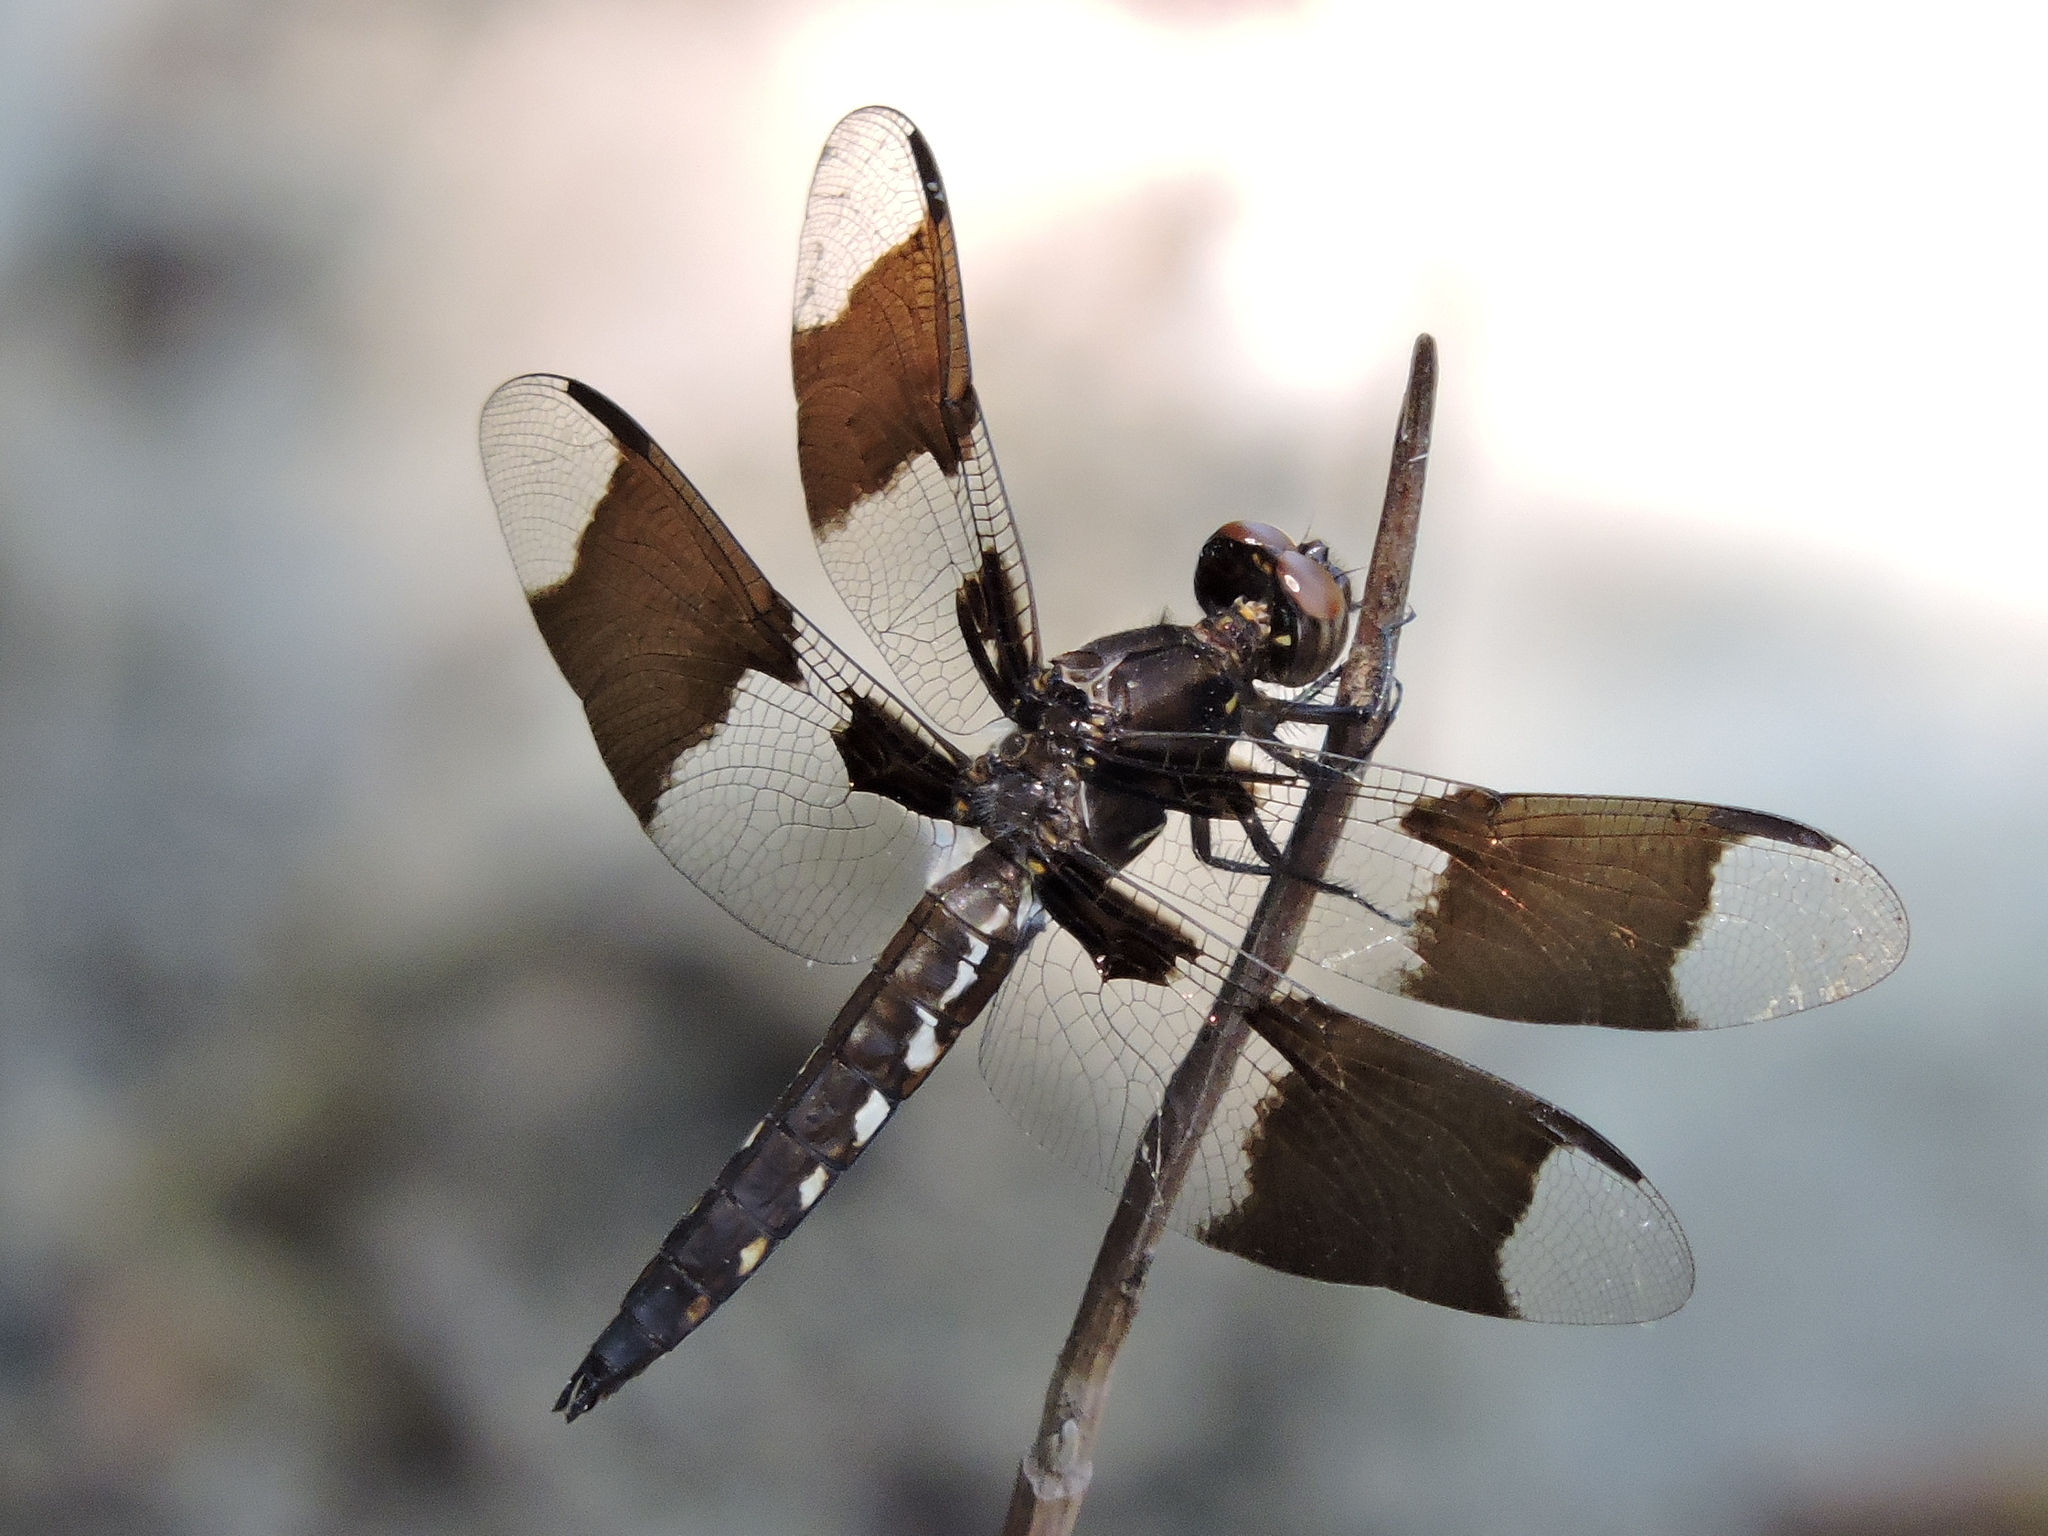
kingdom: Animalia
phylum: Arthropoda
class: Insecta
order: Odonata
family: Libellulidae
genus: Plathemis
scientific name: Plathemis lydia
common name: Common whitetail
